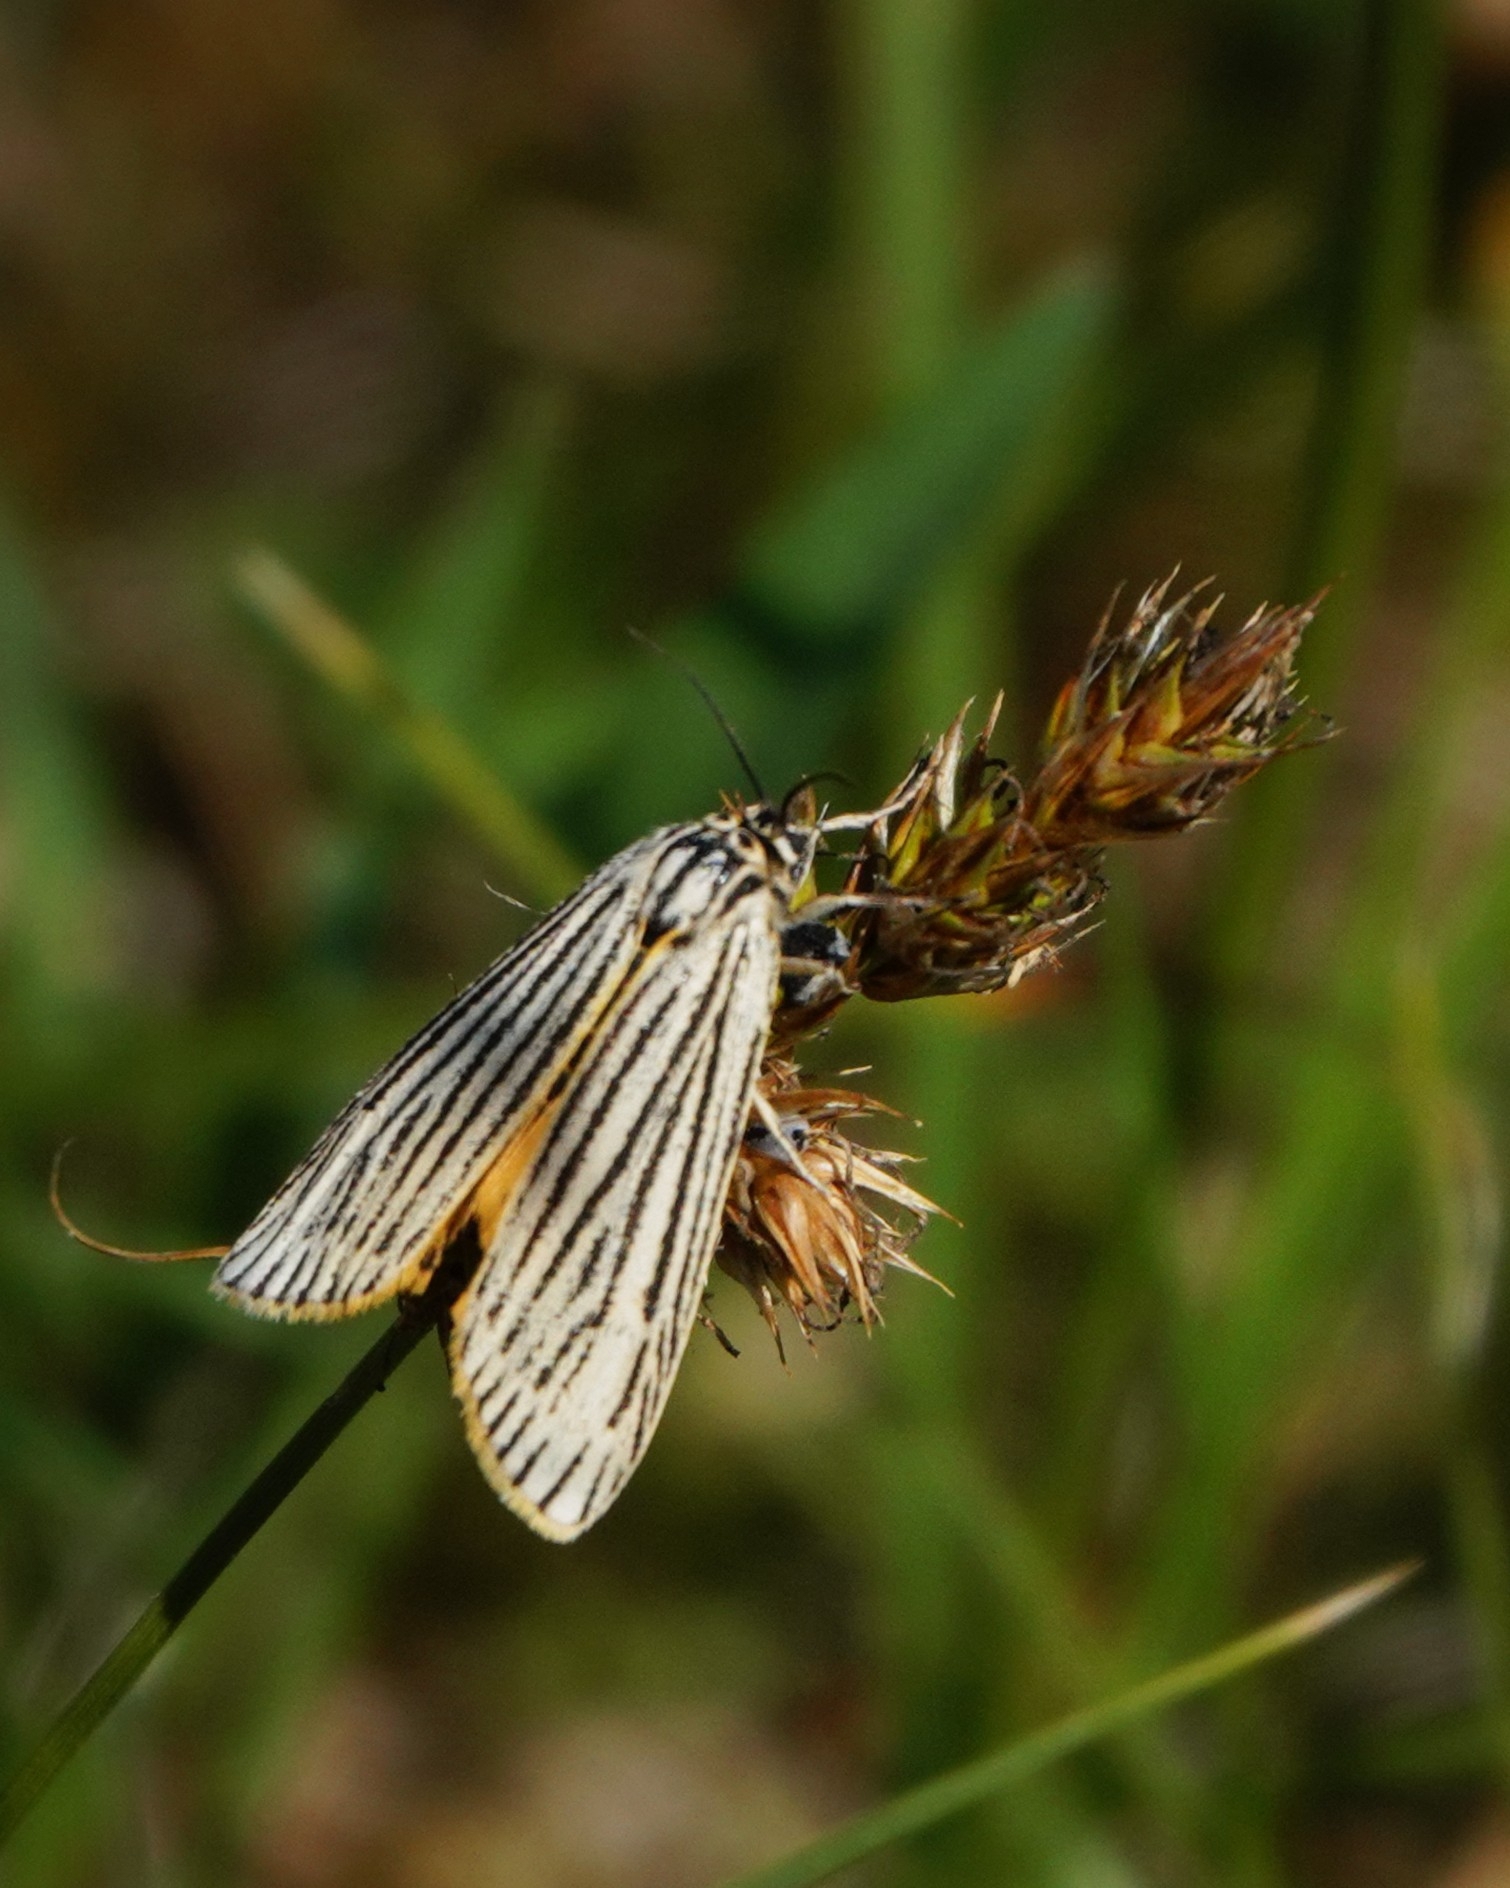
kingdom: Animalia
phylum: Arthropoda
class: Insecta
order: Lepidoptera
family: Erebidae
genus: Coscinia
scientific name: Coscinia Spiris striata
